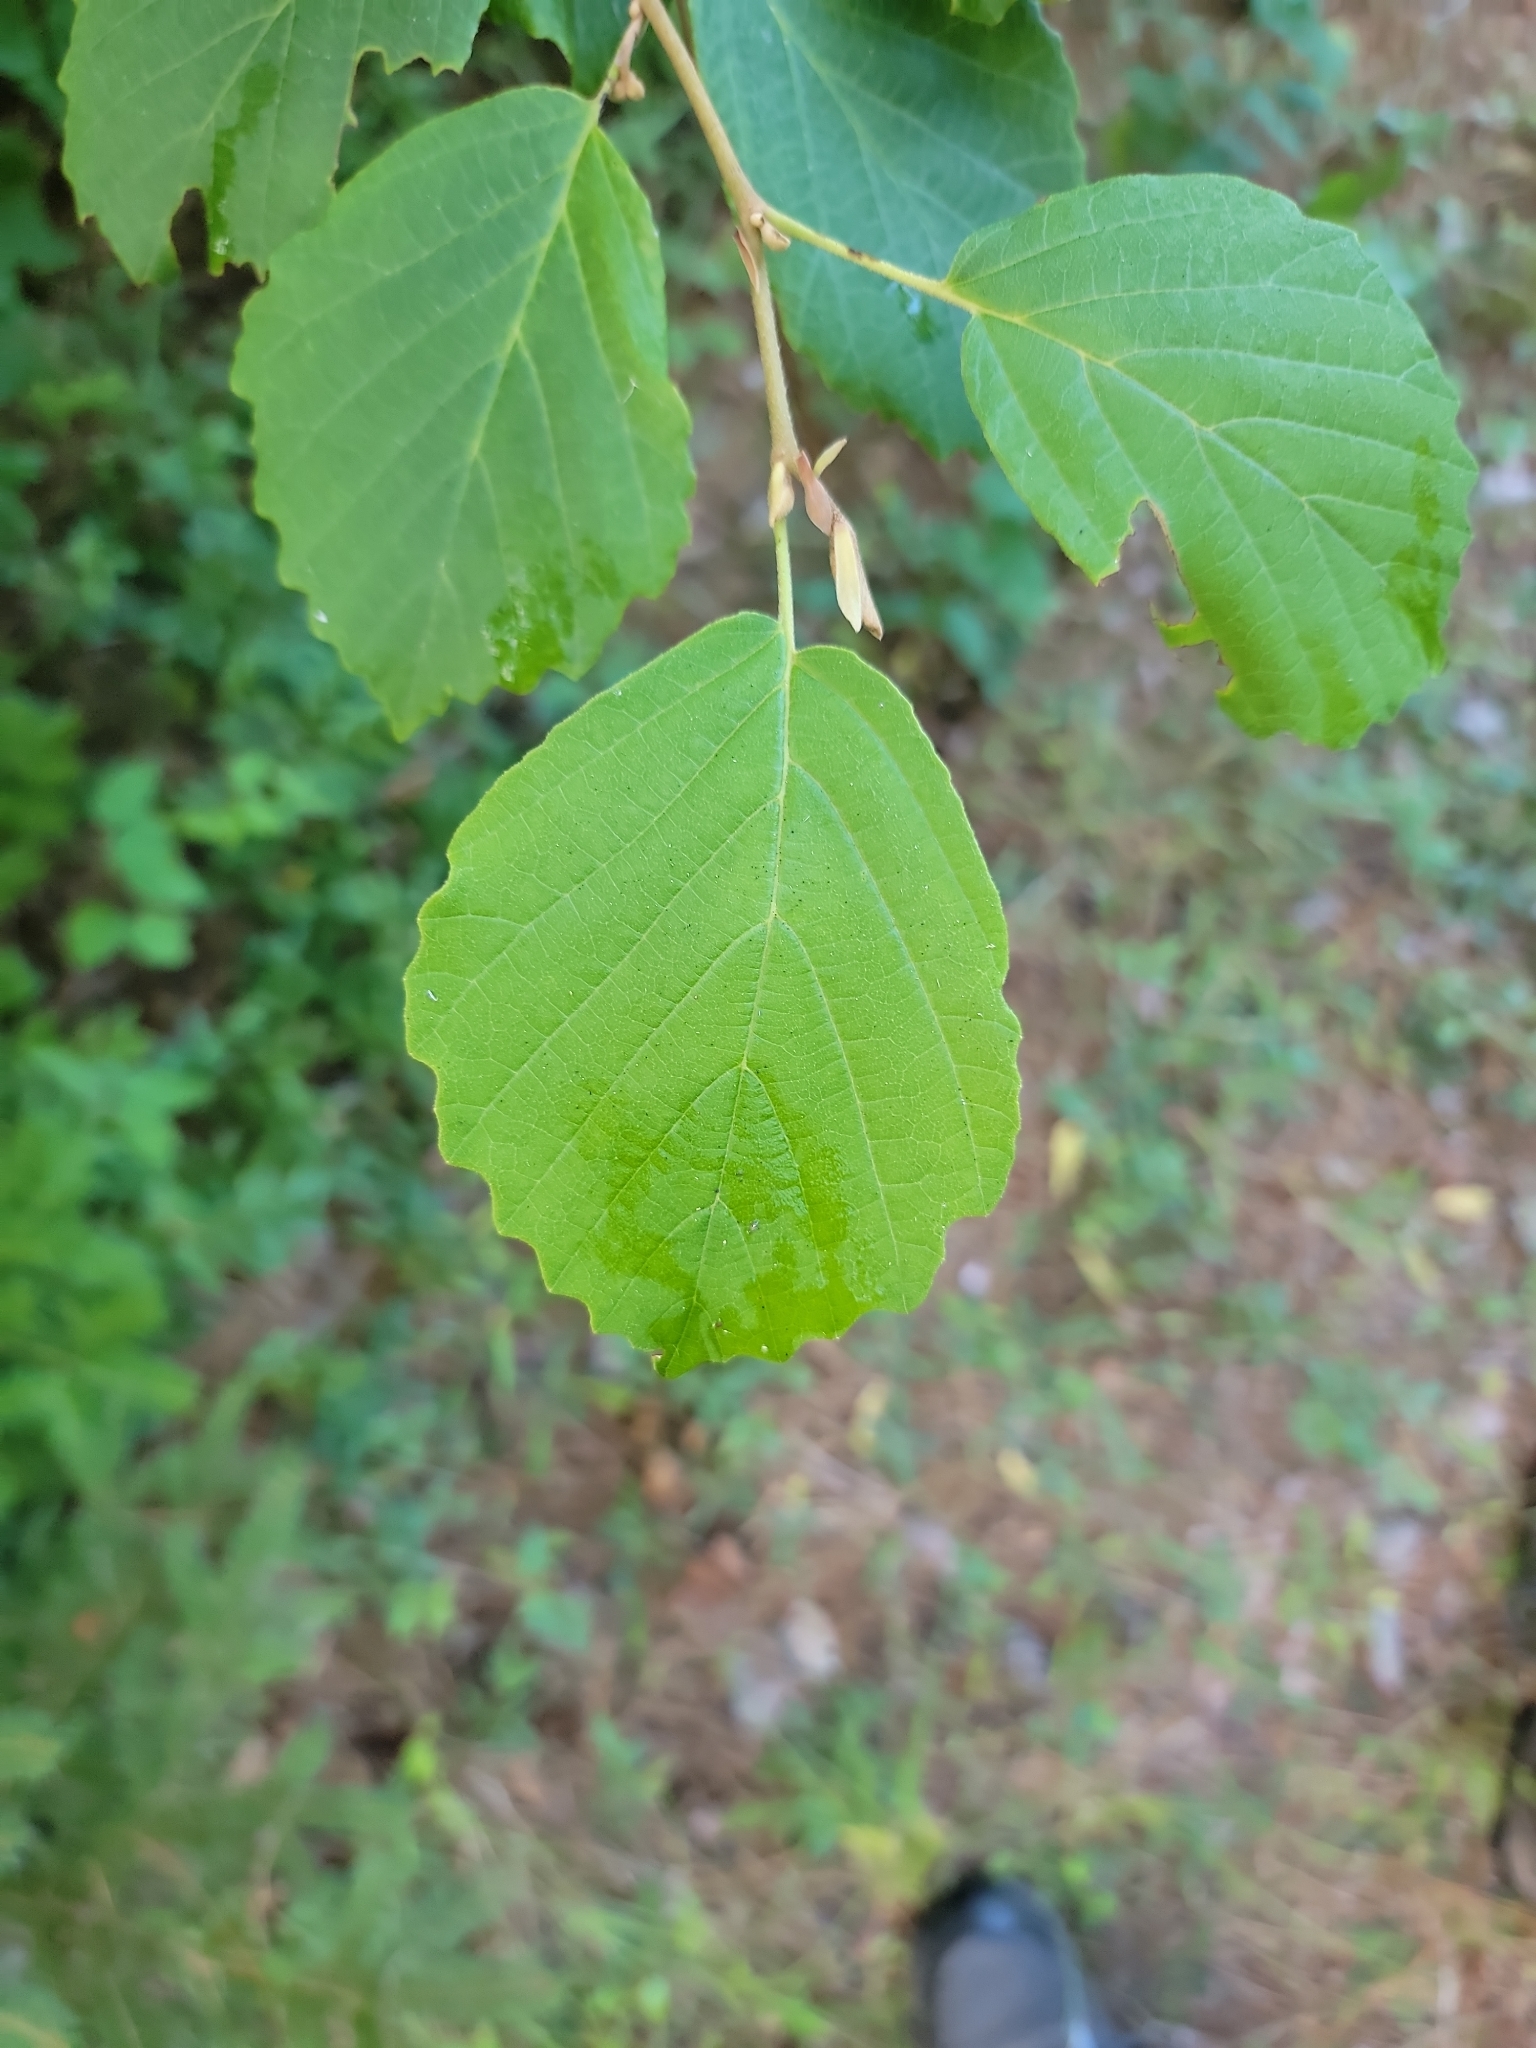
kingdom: Plantae
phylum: Tracheophyta
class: Magnoliopsida
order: Saxifragales
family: Hamamelidaceae
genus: Hamamelis
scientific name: Hamamelis virginiana
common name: Witch-hazel
